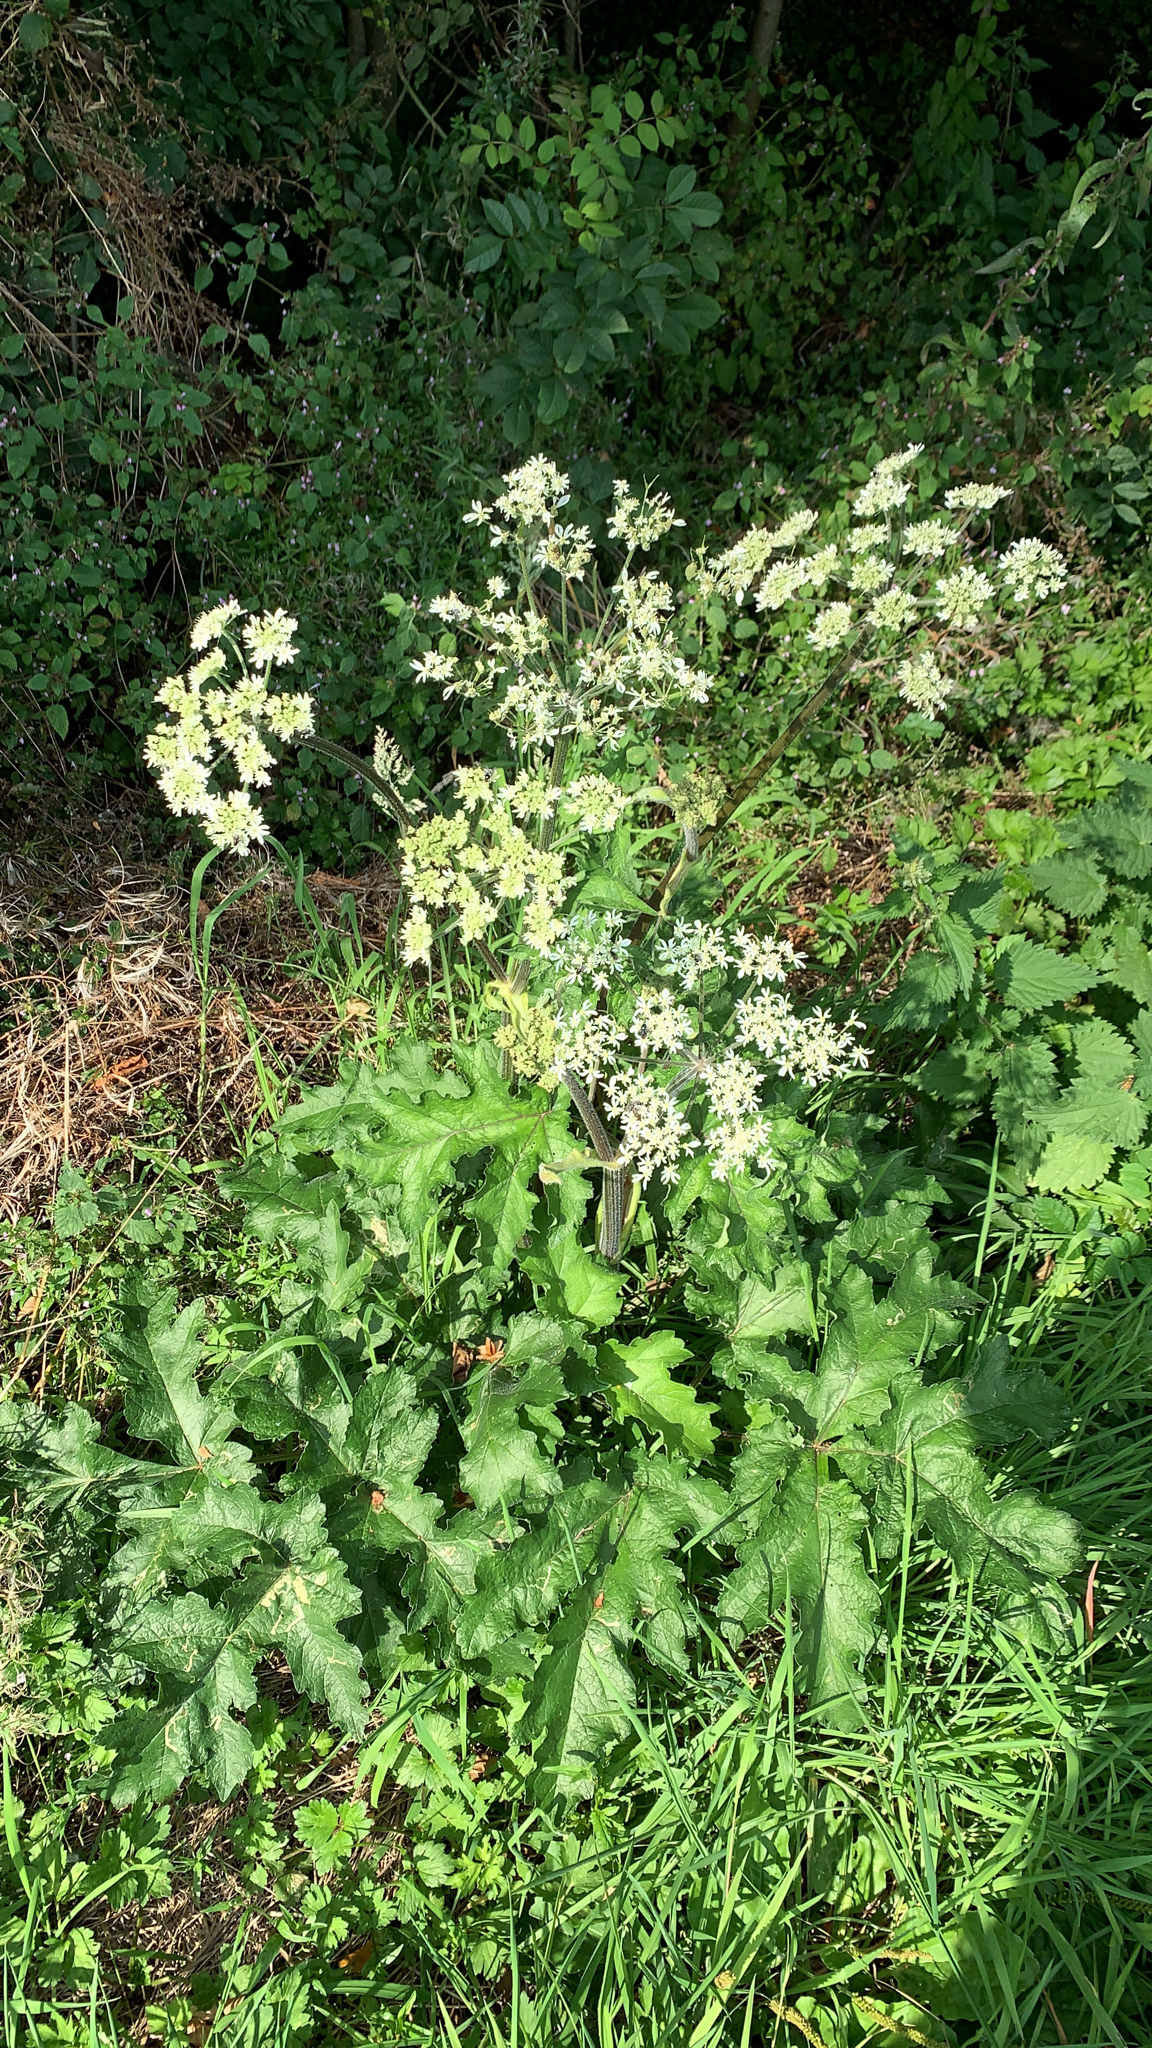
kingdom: Plantae
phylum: Tracheophyta
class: Magnoliopsida
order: Apiales
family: Apiaceae
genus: Heracleum
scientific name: Heracleum sphondylium
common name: Hogweed
